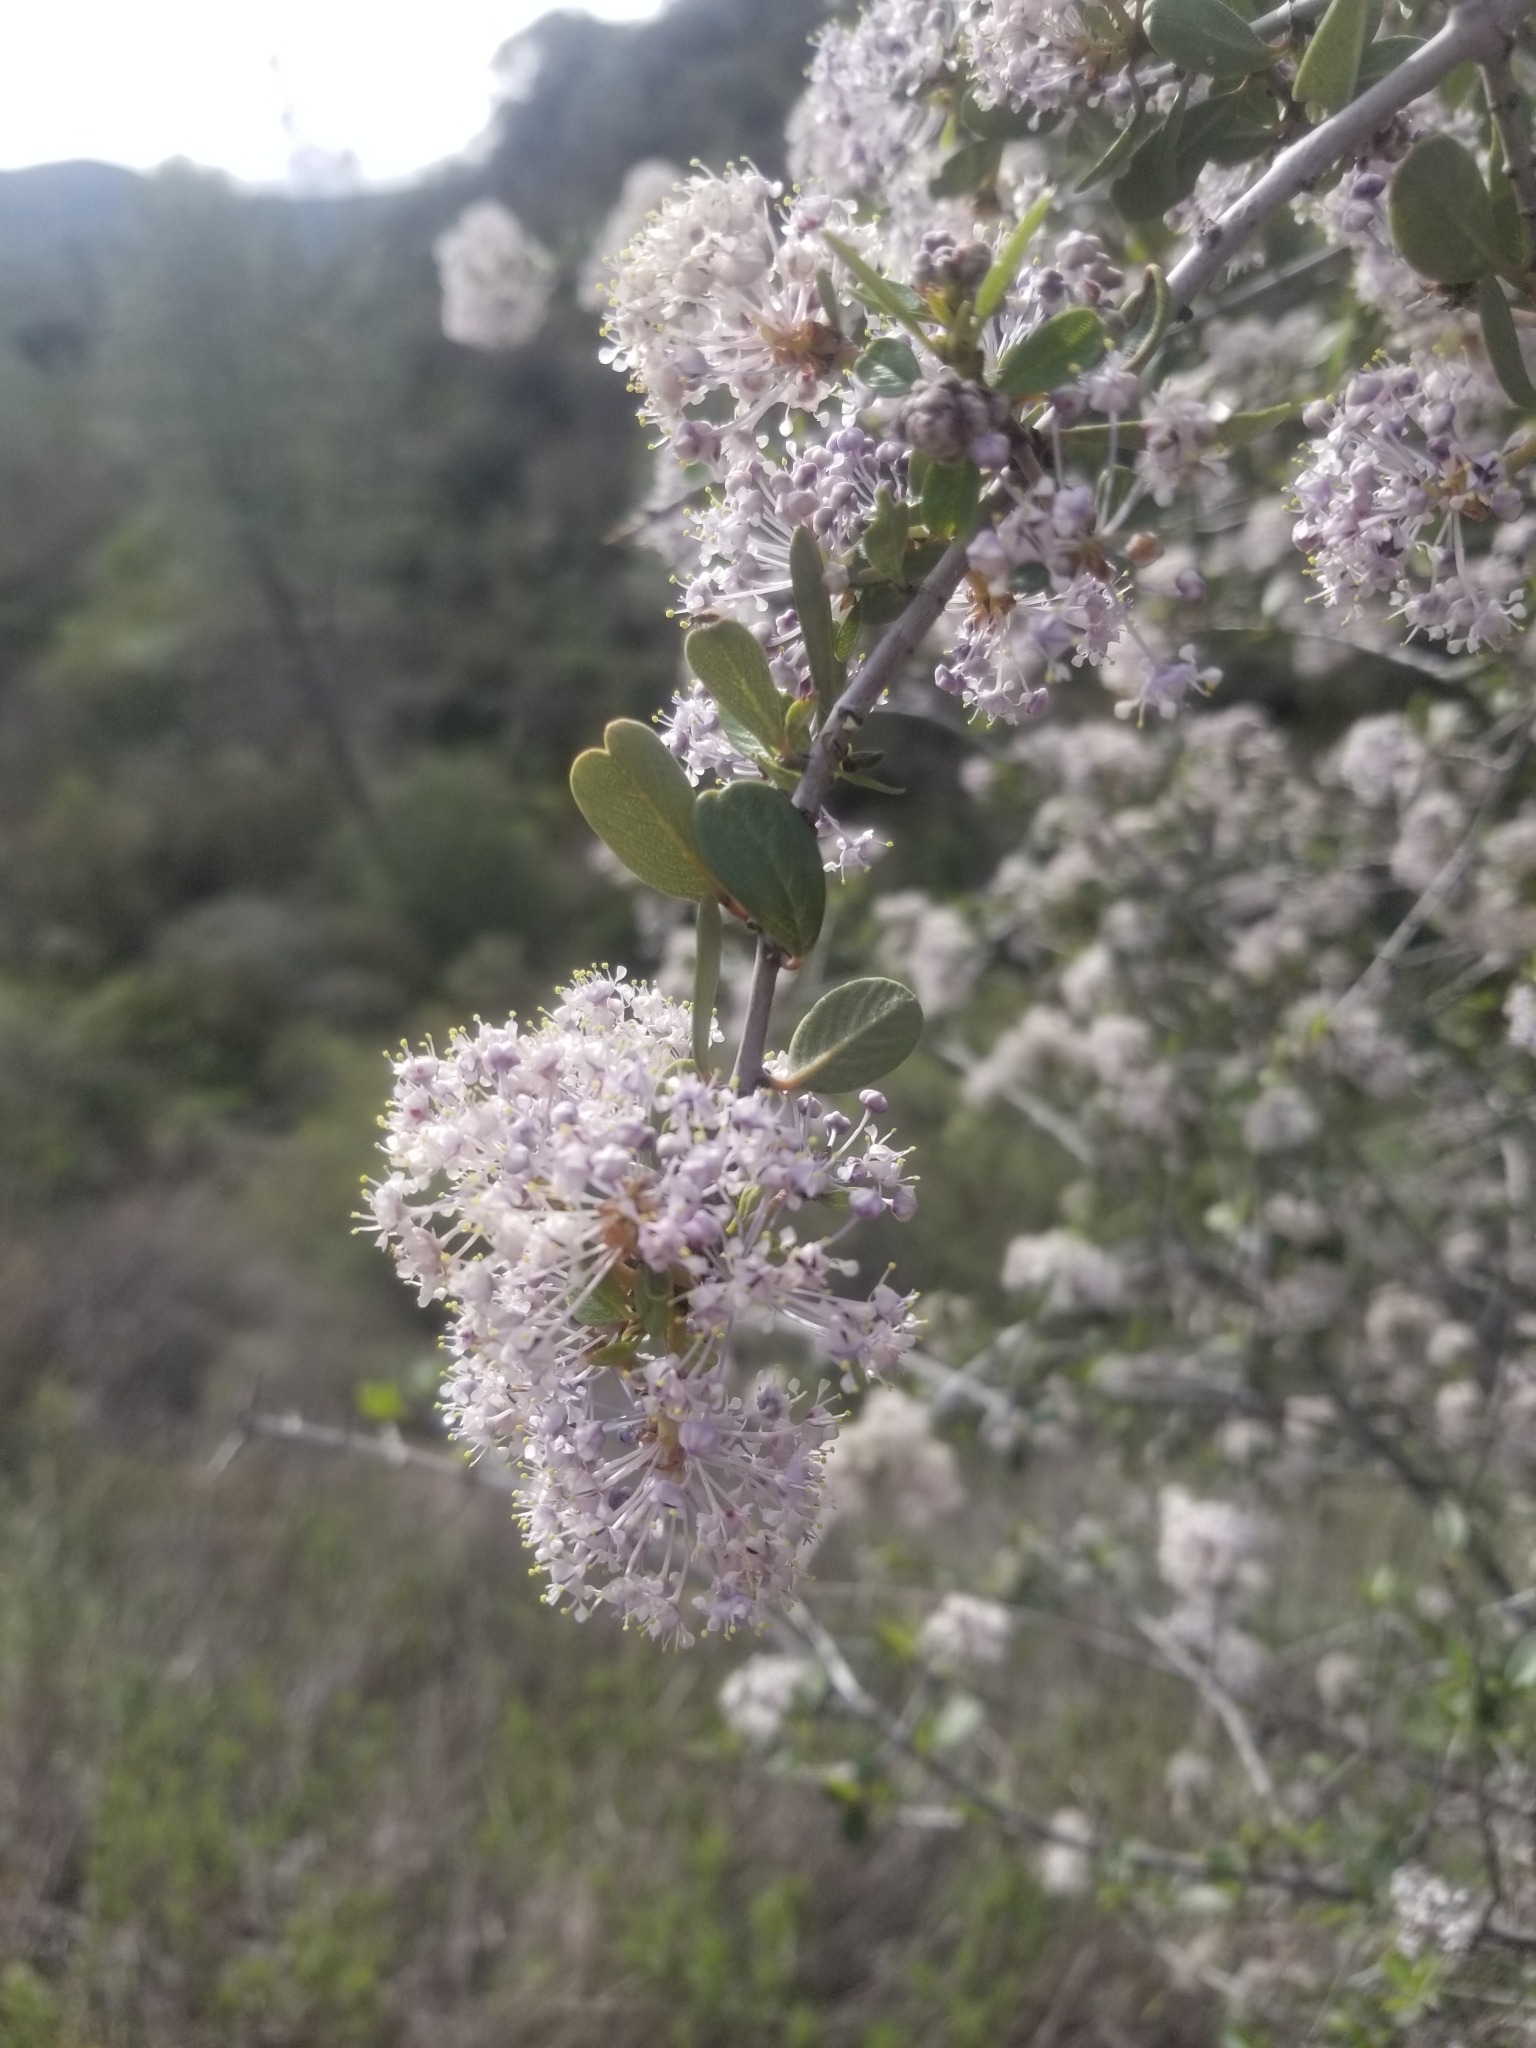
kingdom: Plantae
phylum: Tracheophyta
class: Magnoliopsida
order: Rosales
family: Rhamnaceae
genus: Ceanothus
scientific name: Ceanothus cuneatus
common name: Cuneate ceanothus
